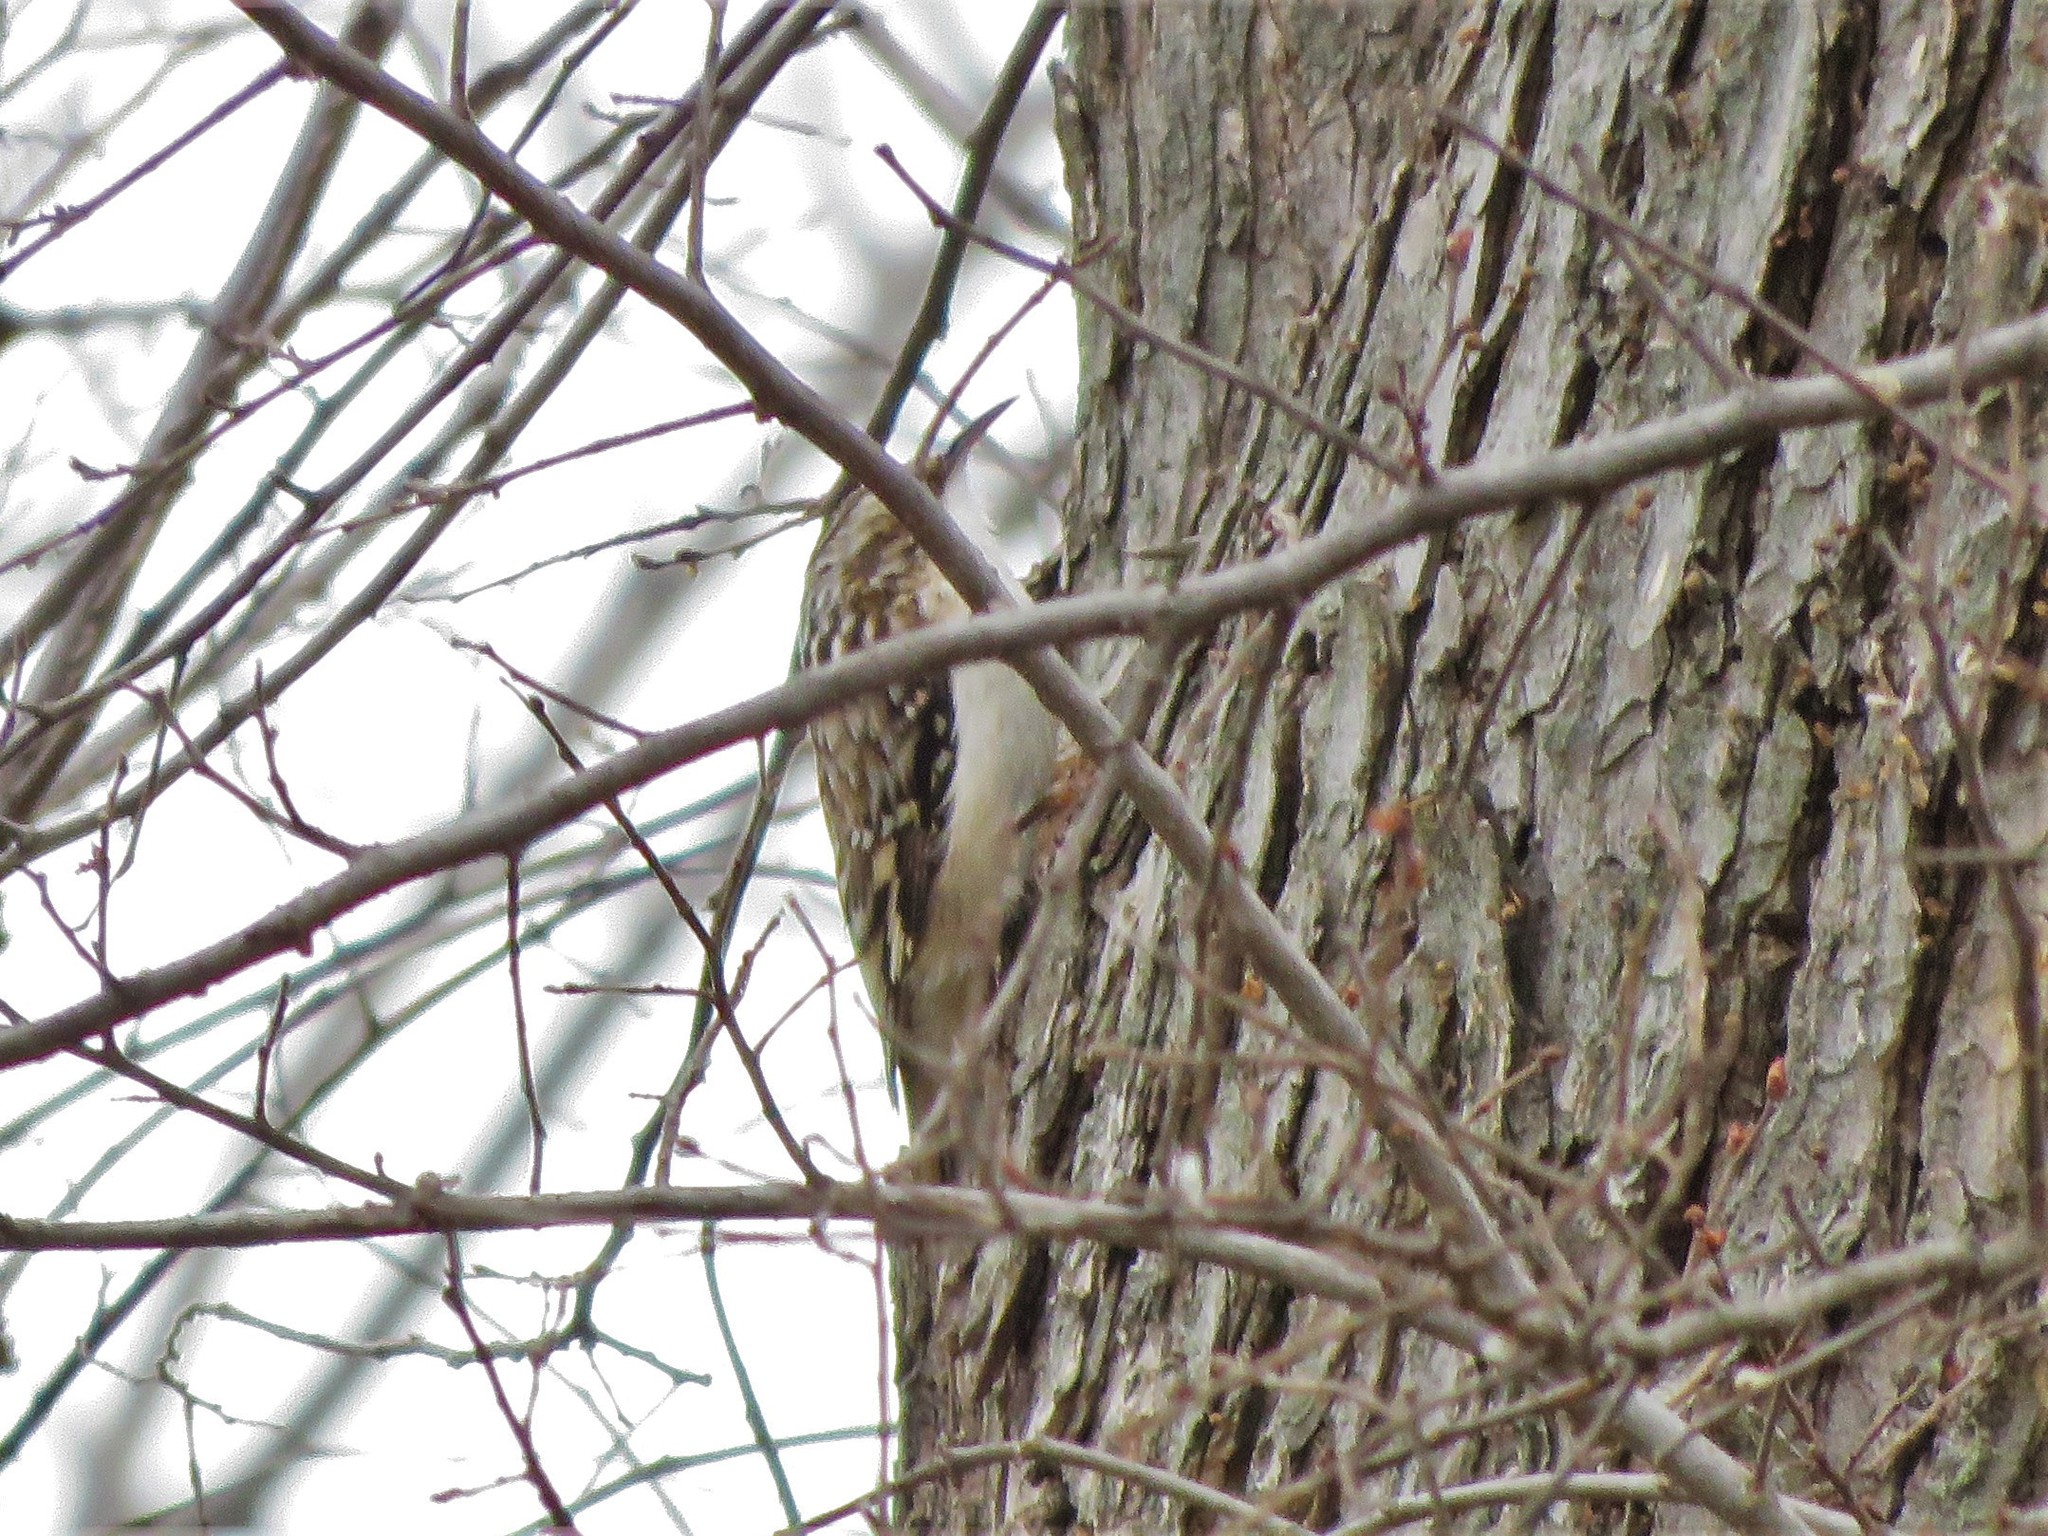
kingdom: Animalia
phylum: Chordata
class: Aves
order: Passeriformes
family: Certhiidae
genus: Certhia
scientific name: Certhia americana
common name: Brown creeper
